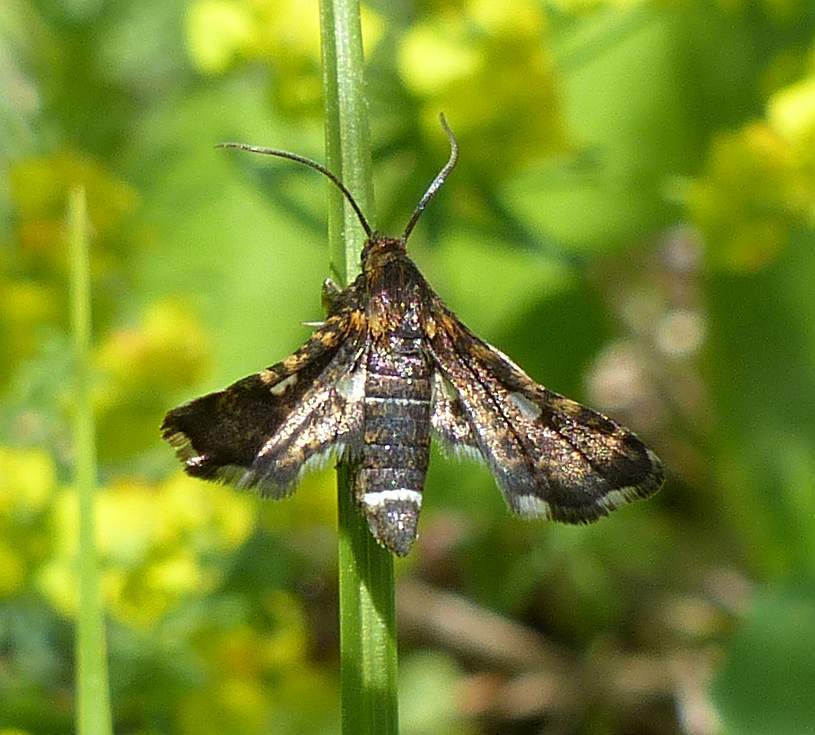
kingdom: Animalia
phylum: Arthropoda
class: Insecta
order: Lepidoptera
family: Thyrididae
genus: Thyris
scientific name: Thyris maculata
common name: Spotted thyris moth
